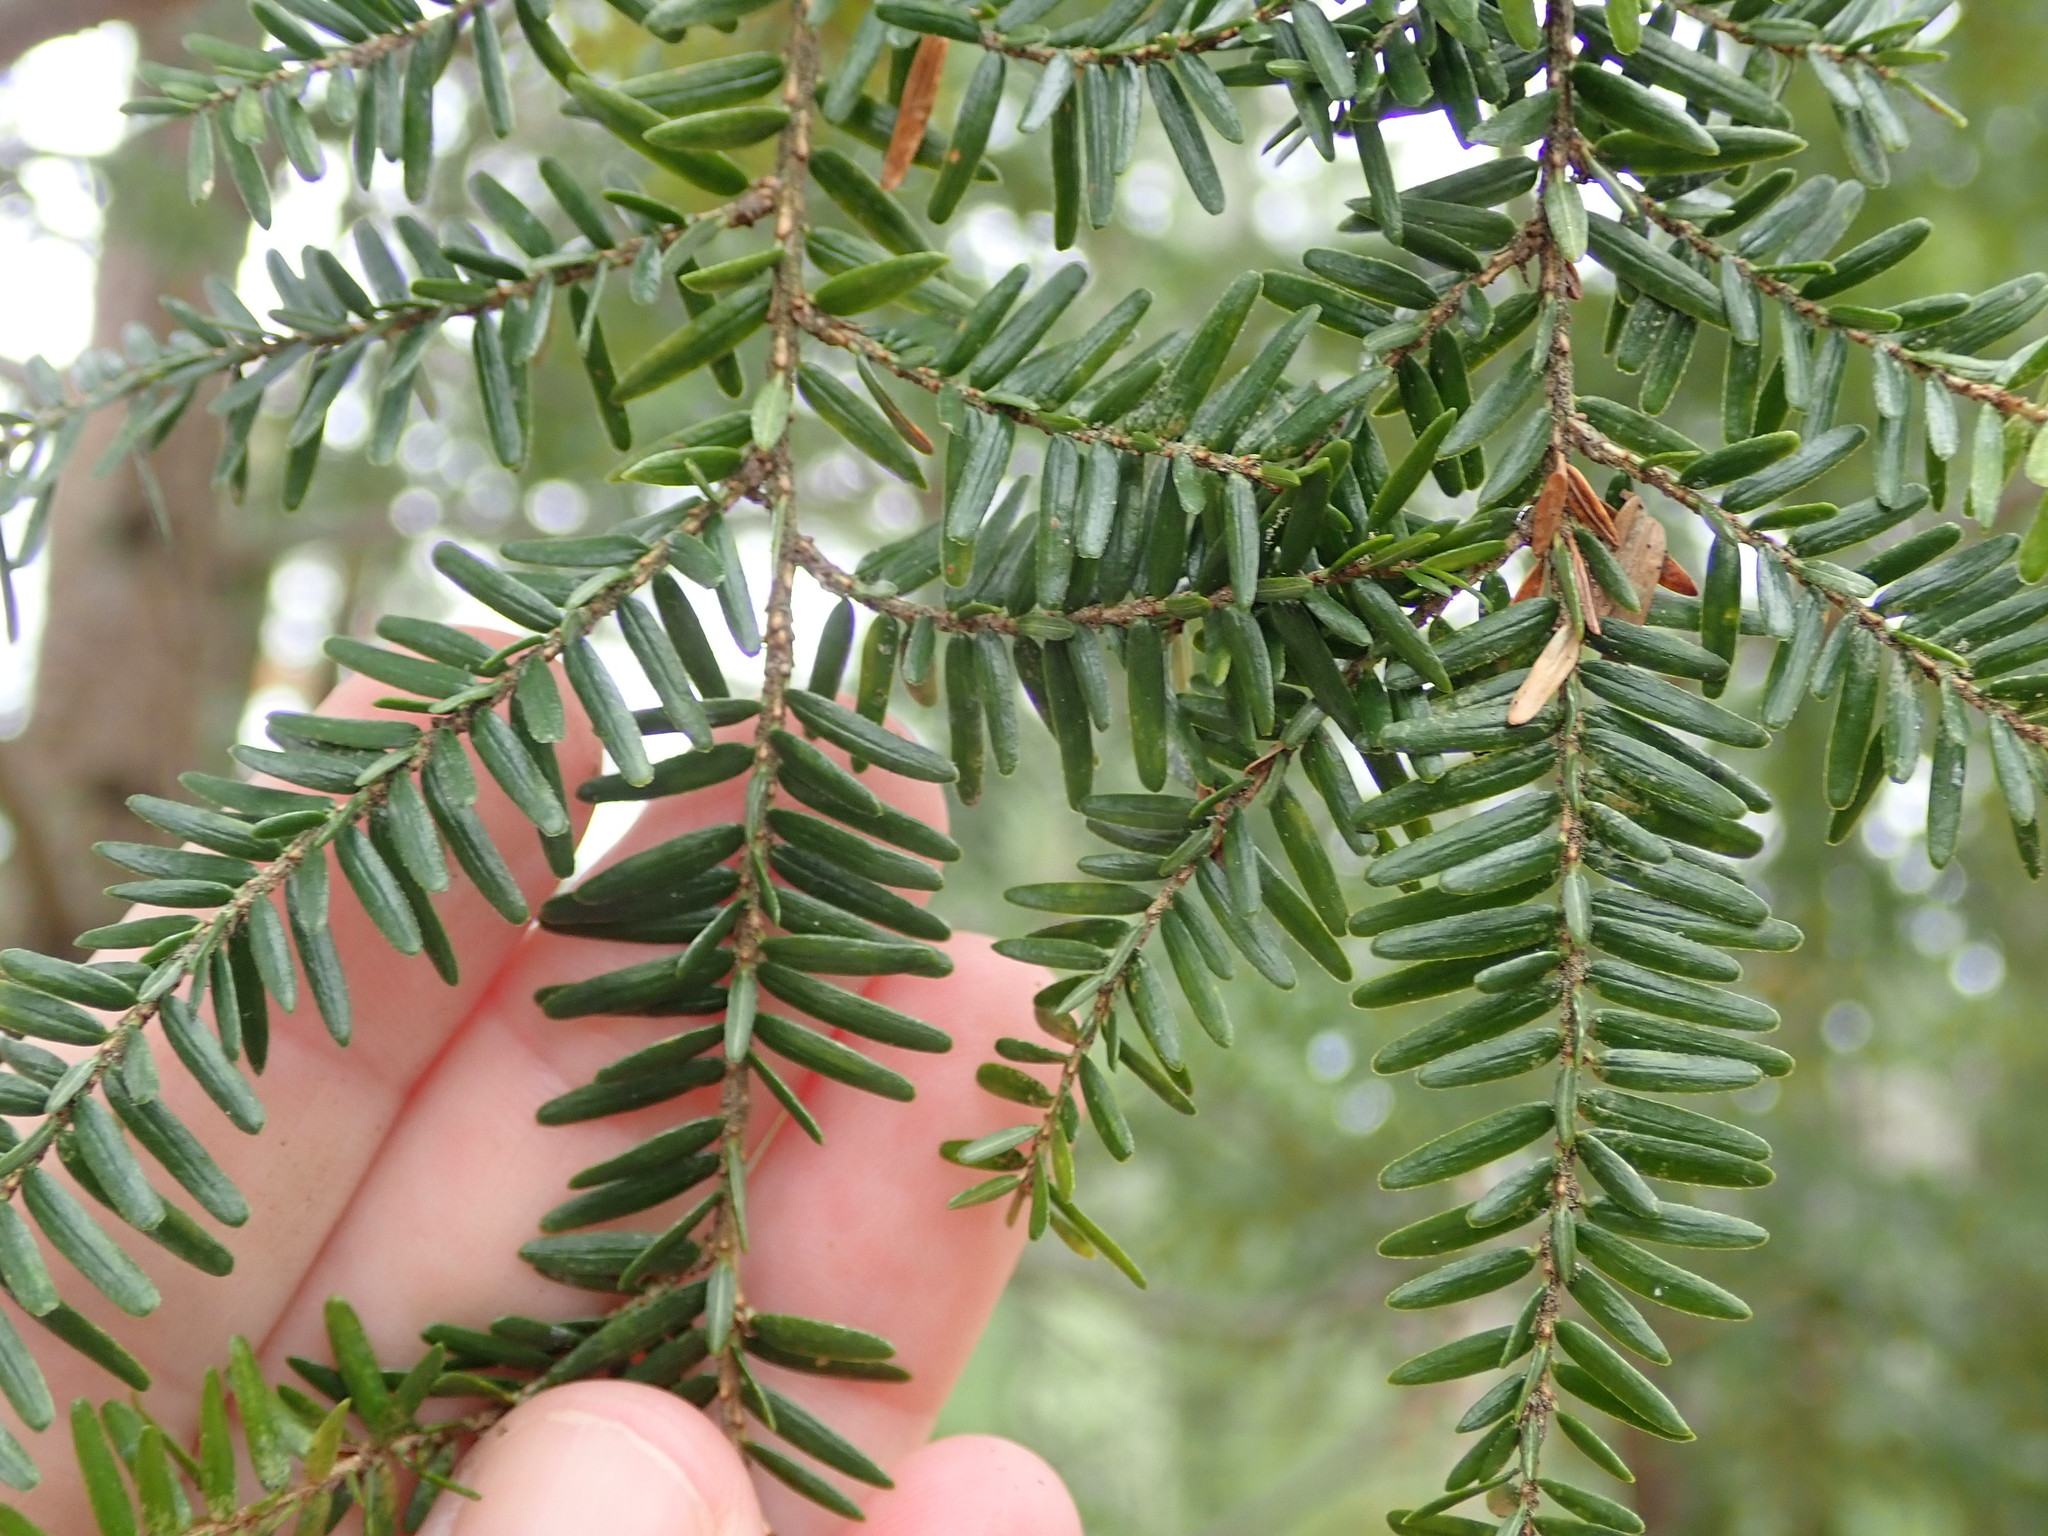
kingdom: Plantae
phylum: Tracheophyta
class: Pinopsida
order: Pinales
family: Pinaceae
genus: Tsuga
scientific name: Tsuga canadensis
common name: Eastern hemlock
